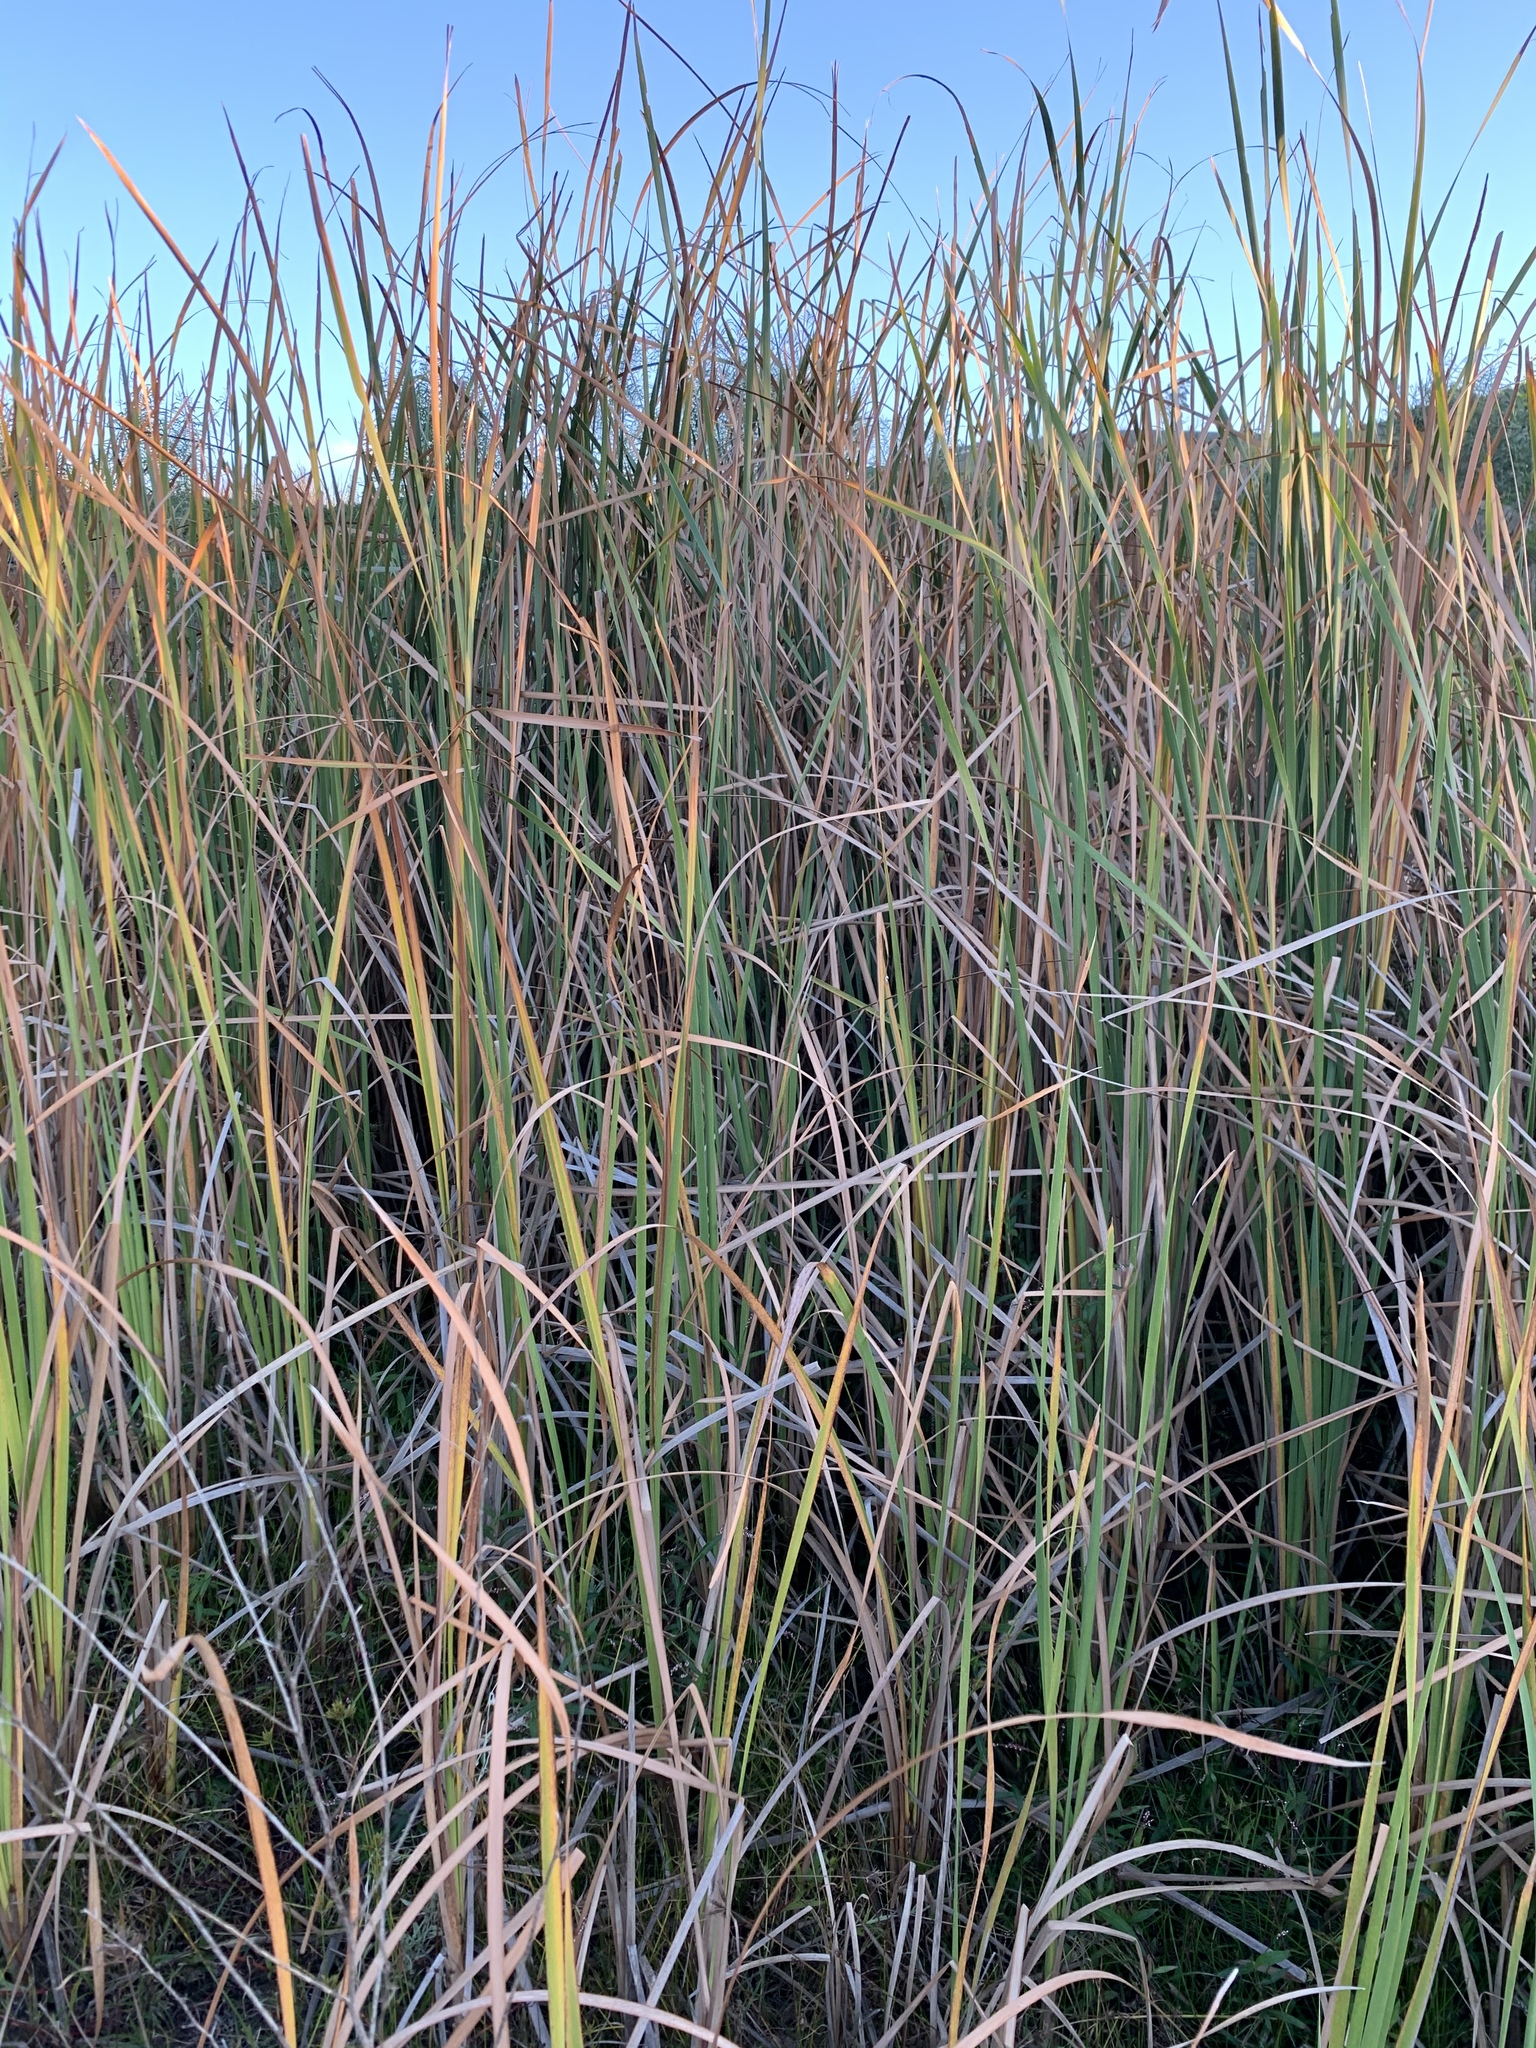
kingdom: Plantae
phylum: Tracheophyta
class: Liliopsida
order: Poales
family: Typhaceae
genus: Typha
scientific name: Typha capensis
